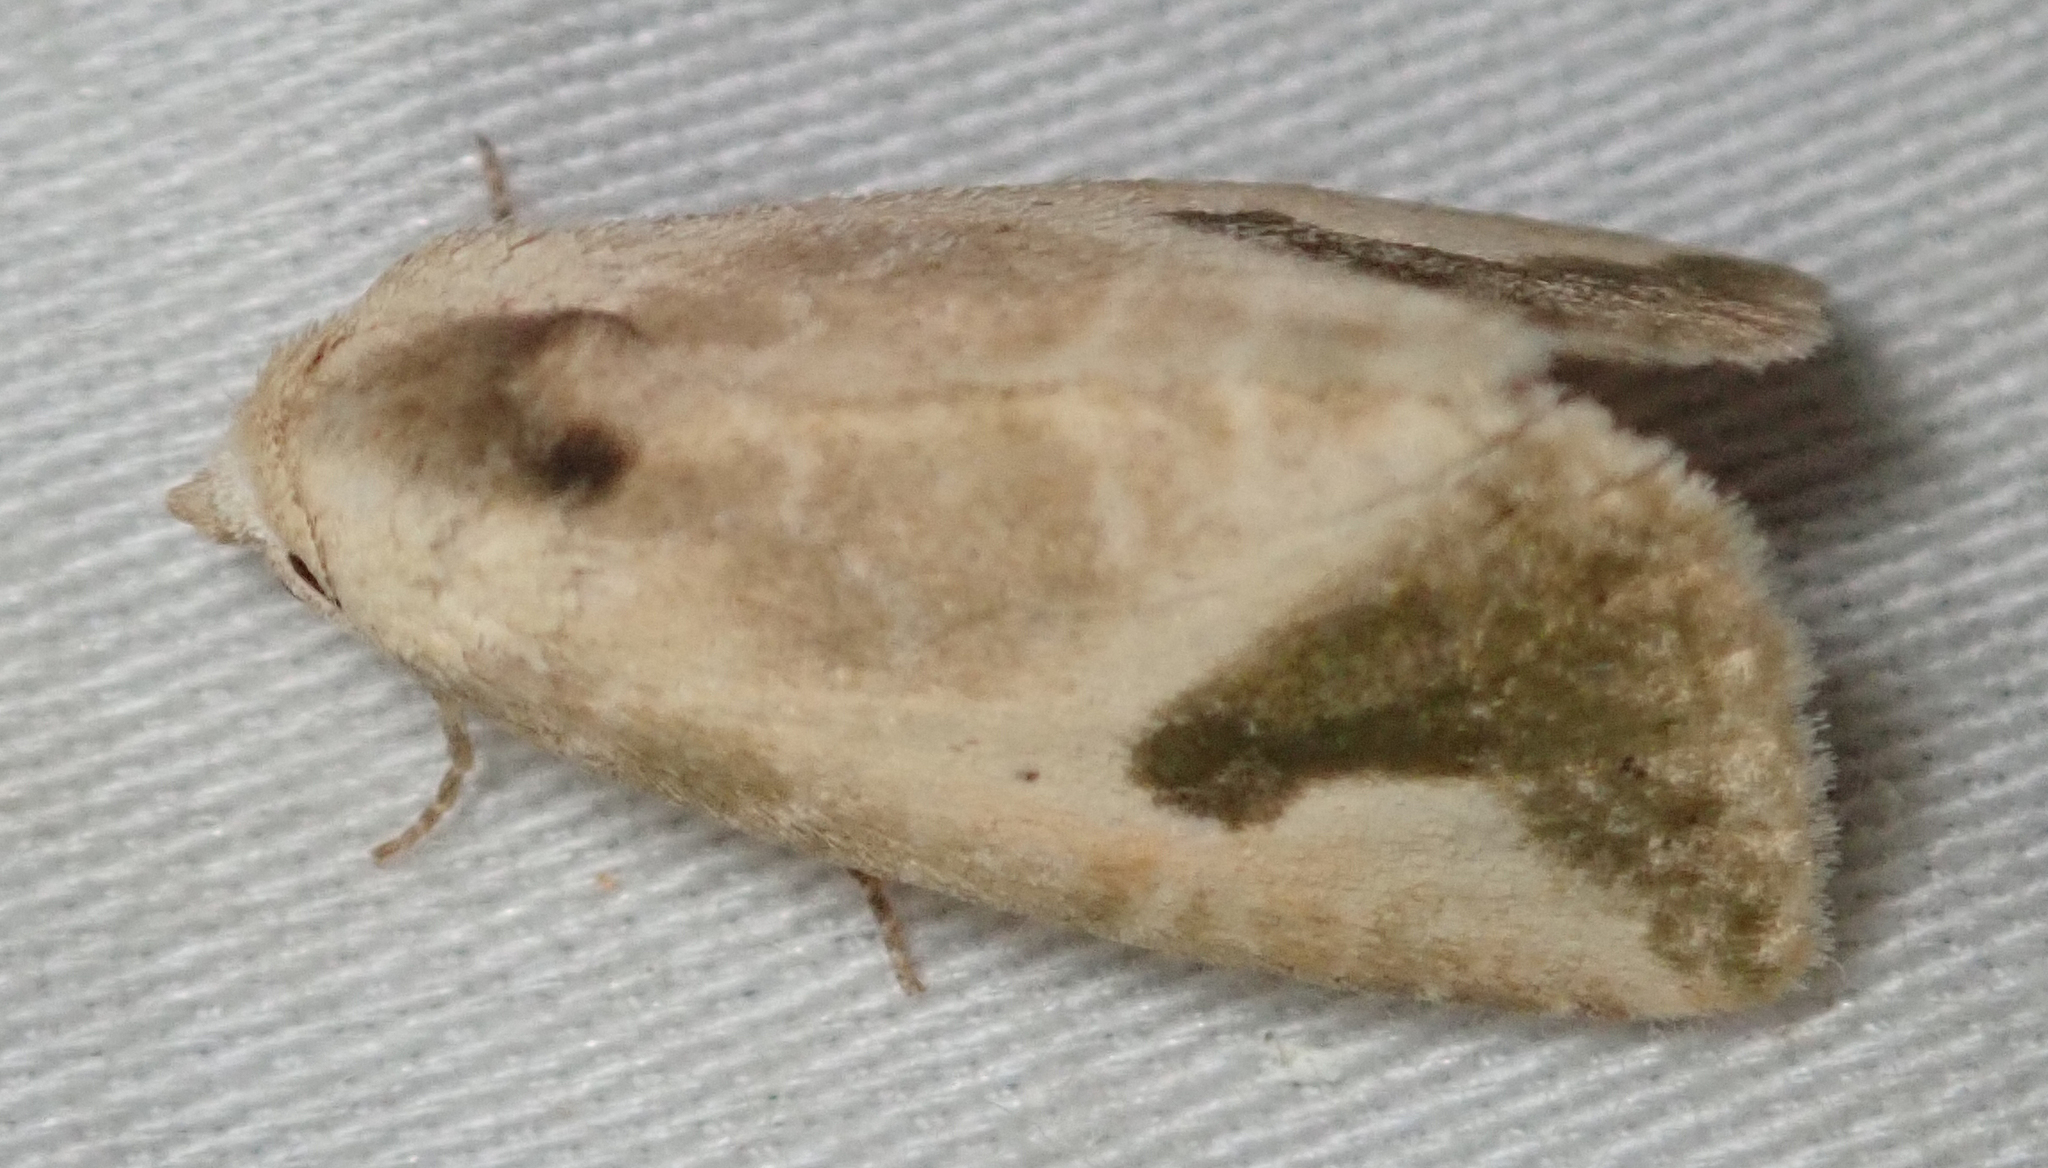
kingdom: Animalia
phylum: Arthropoda
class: Insecta
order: Lepidoptera
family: Noctuidae
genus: Autoba
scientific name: Autoba admota
